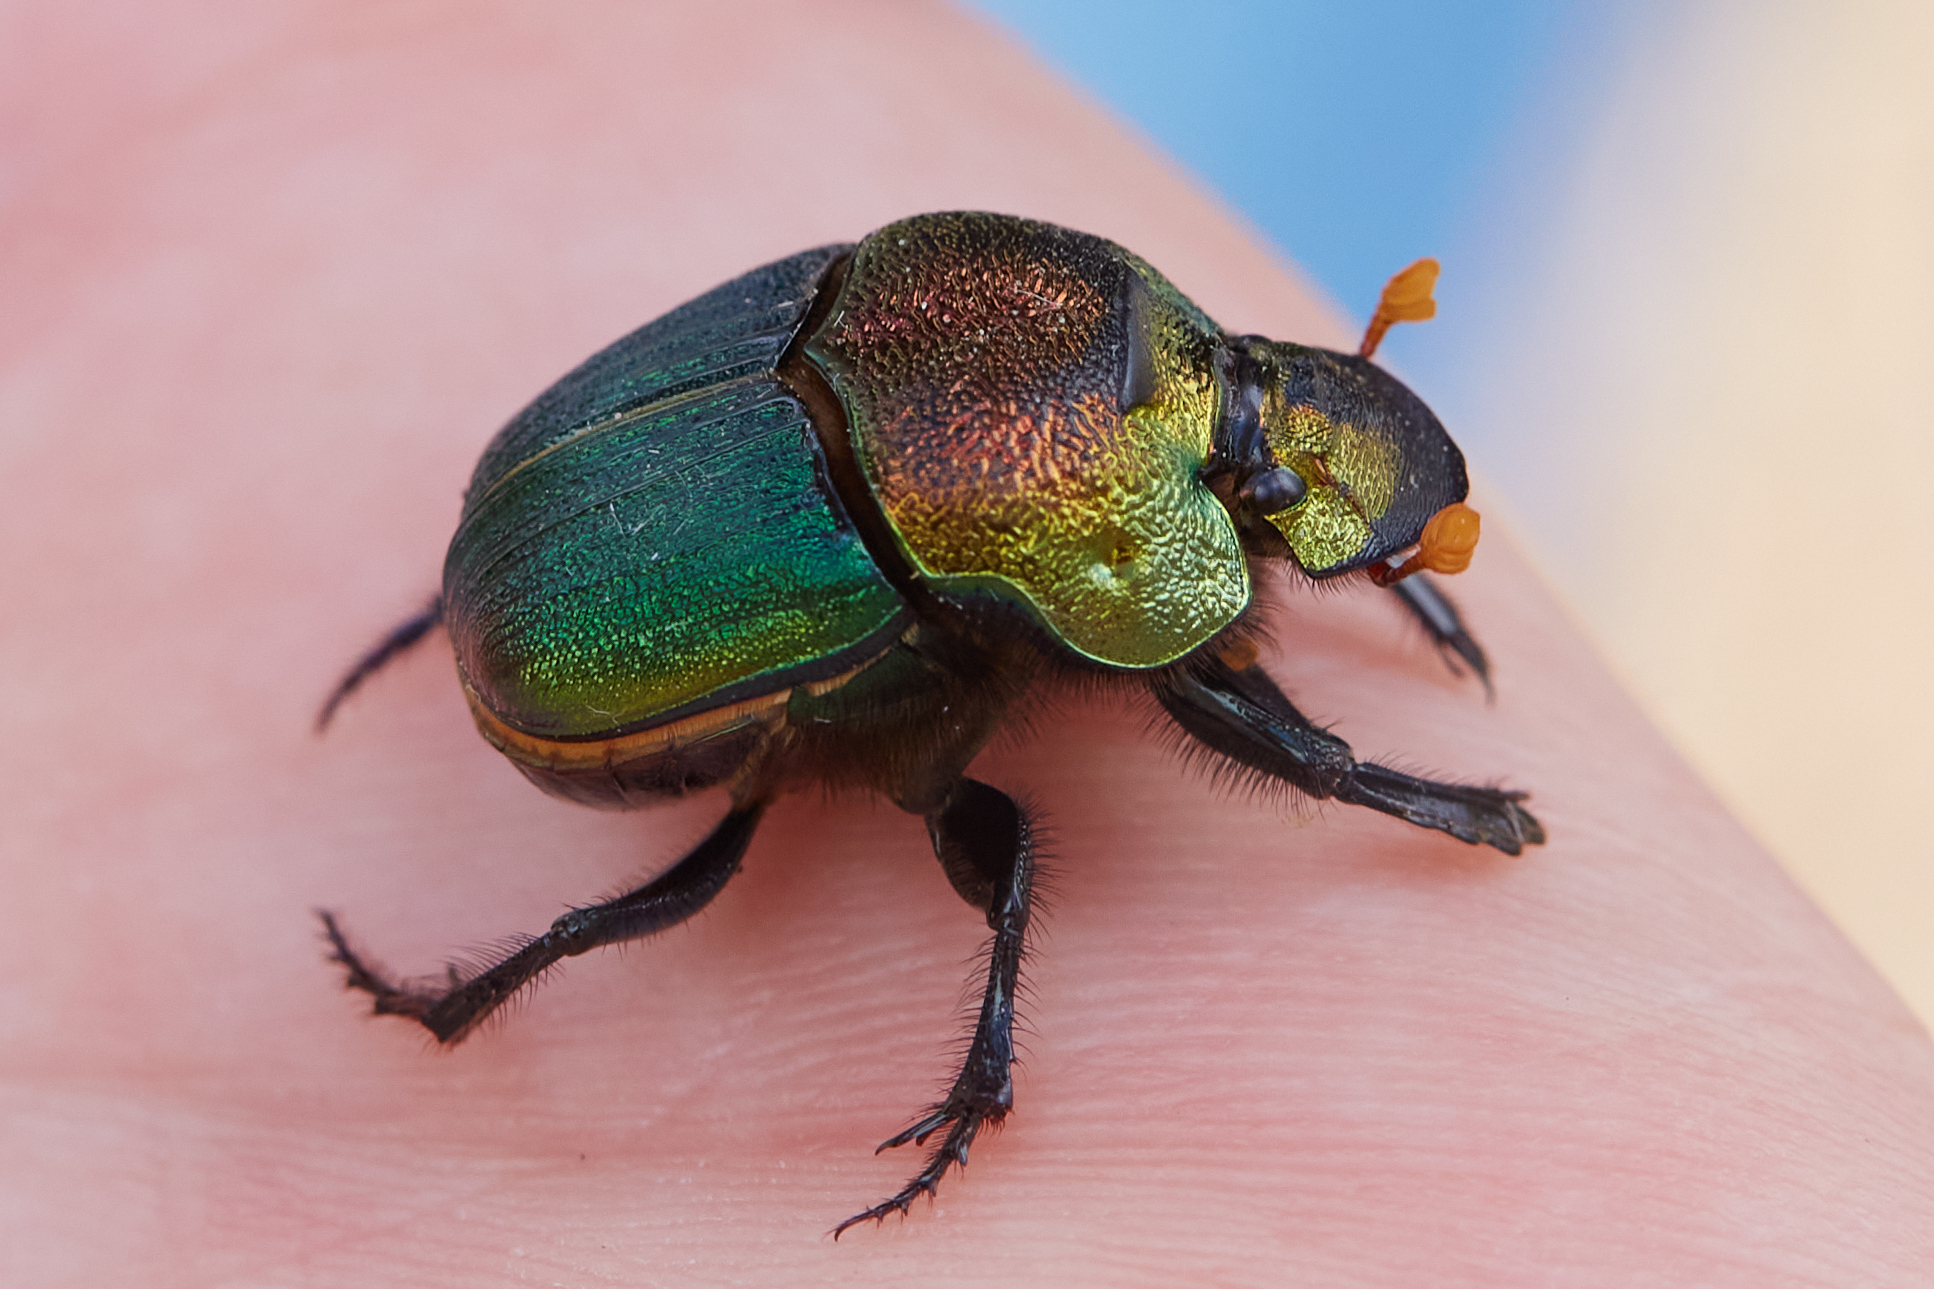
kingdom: Animalia
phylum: Arthropoda
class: Insecta
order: Coleoptera
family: Scarabaeidae
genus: Phanaeus
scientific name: Phanaeus vindex
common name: Rainbow scarab
